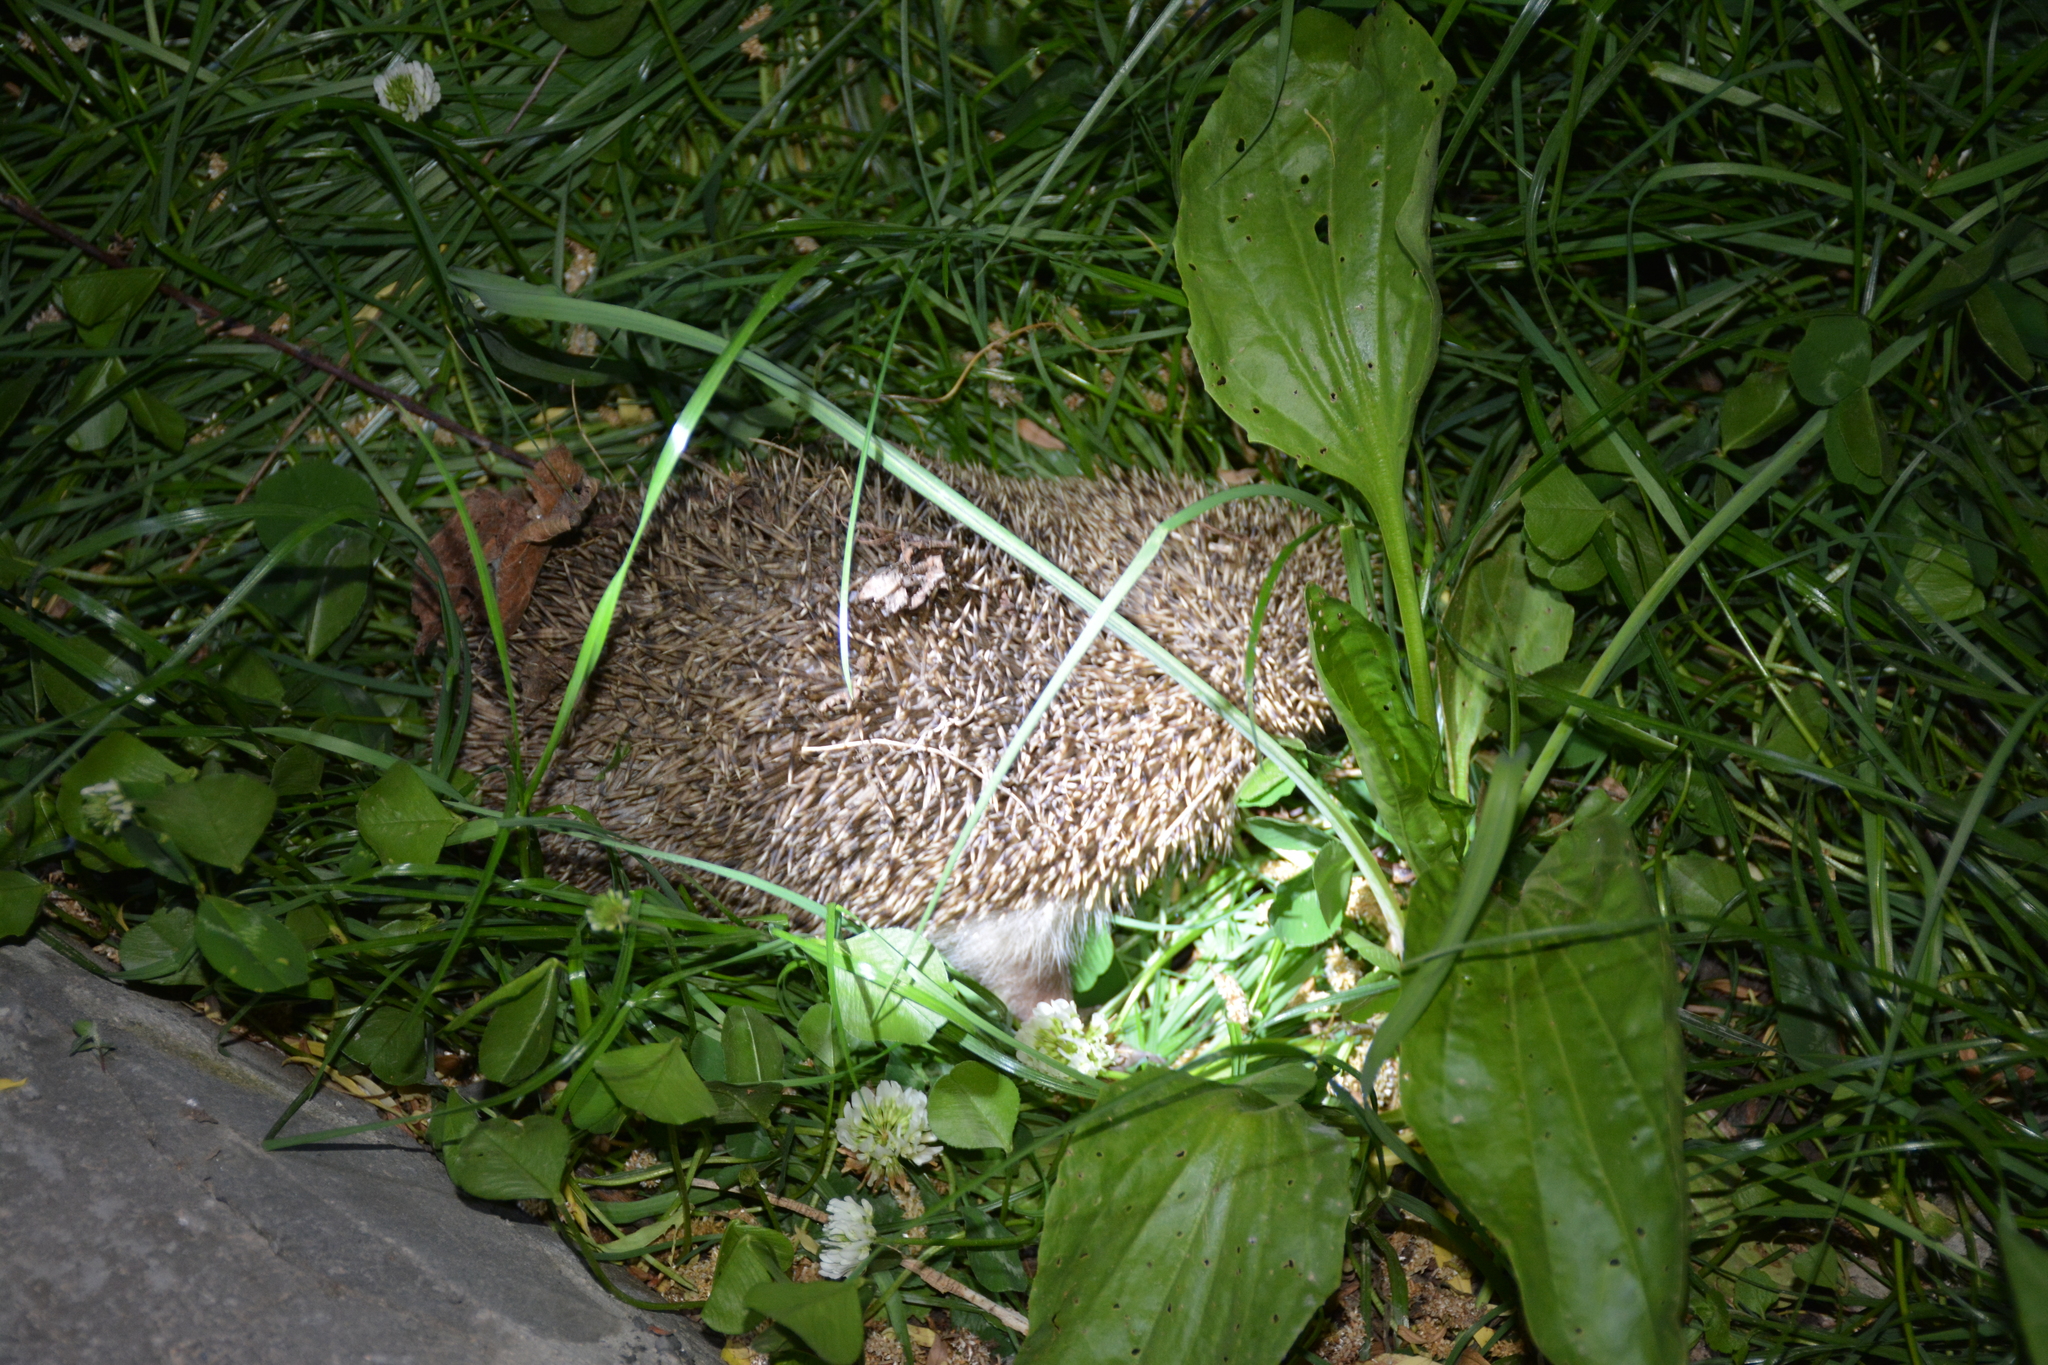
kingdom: Animalia
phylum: Chordata
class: Mammalia
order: Erinaceomorpha
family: Erinaceidae
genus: Erinaceus
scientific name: Erinaceus concolor
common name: Southern white-breasted hedgehog
